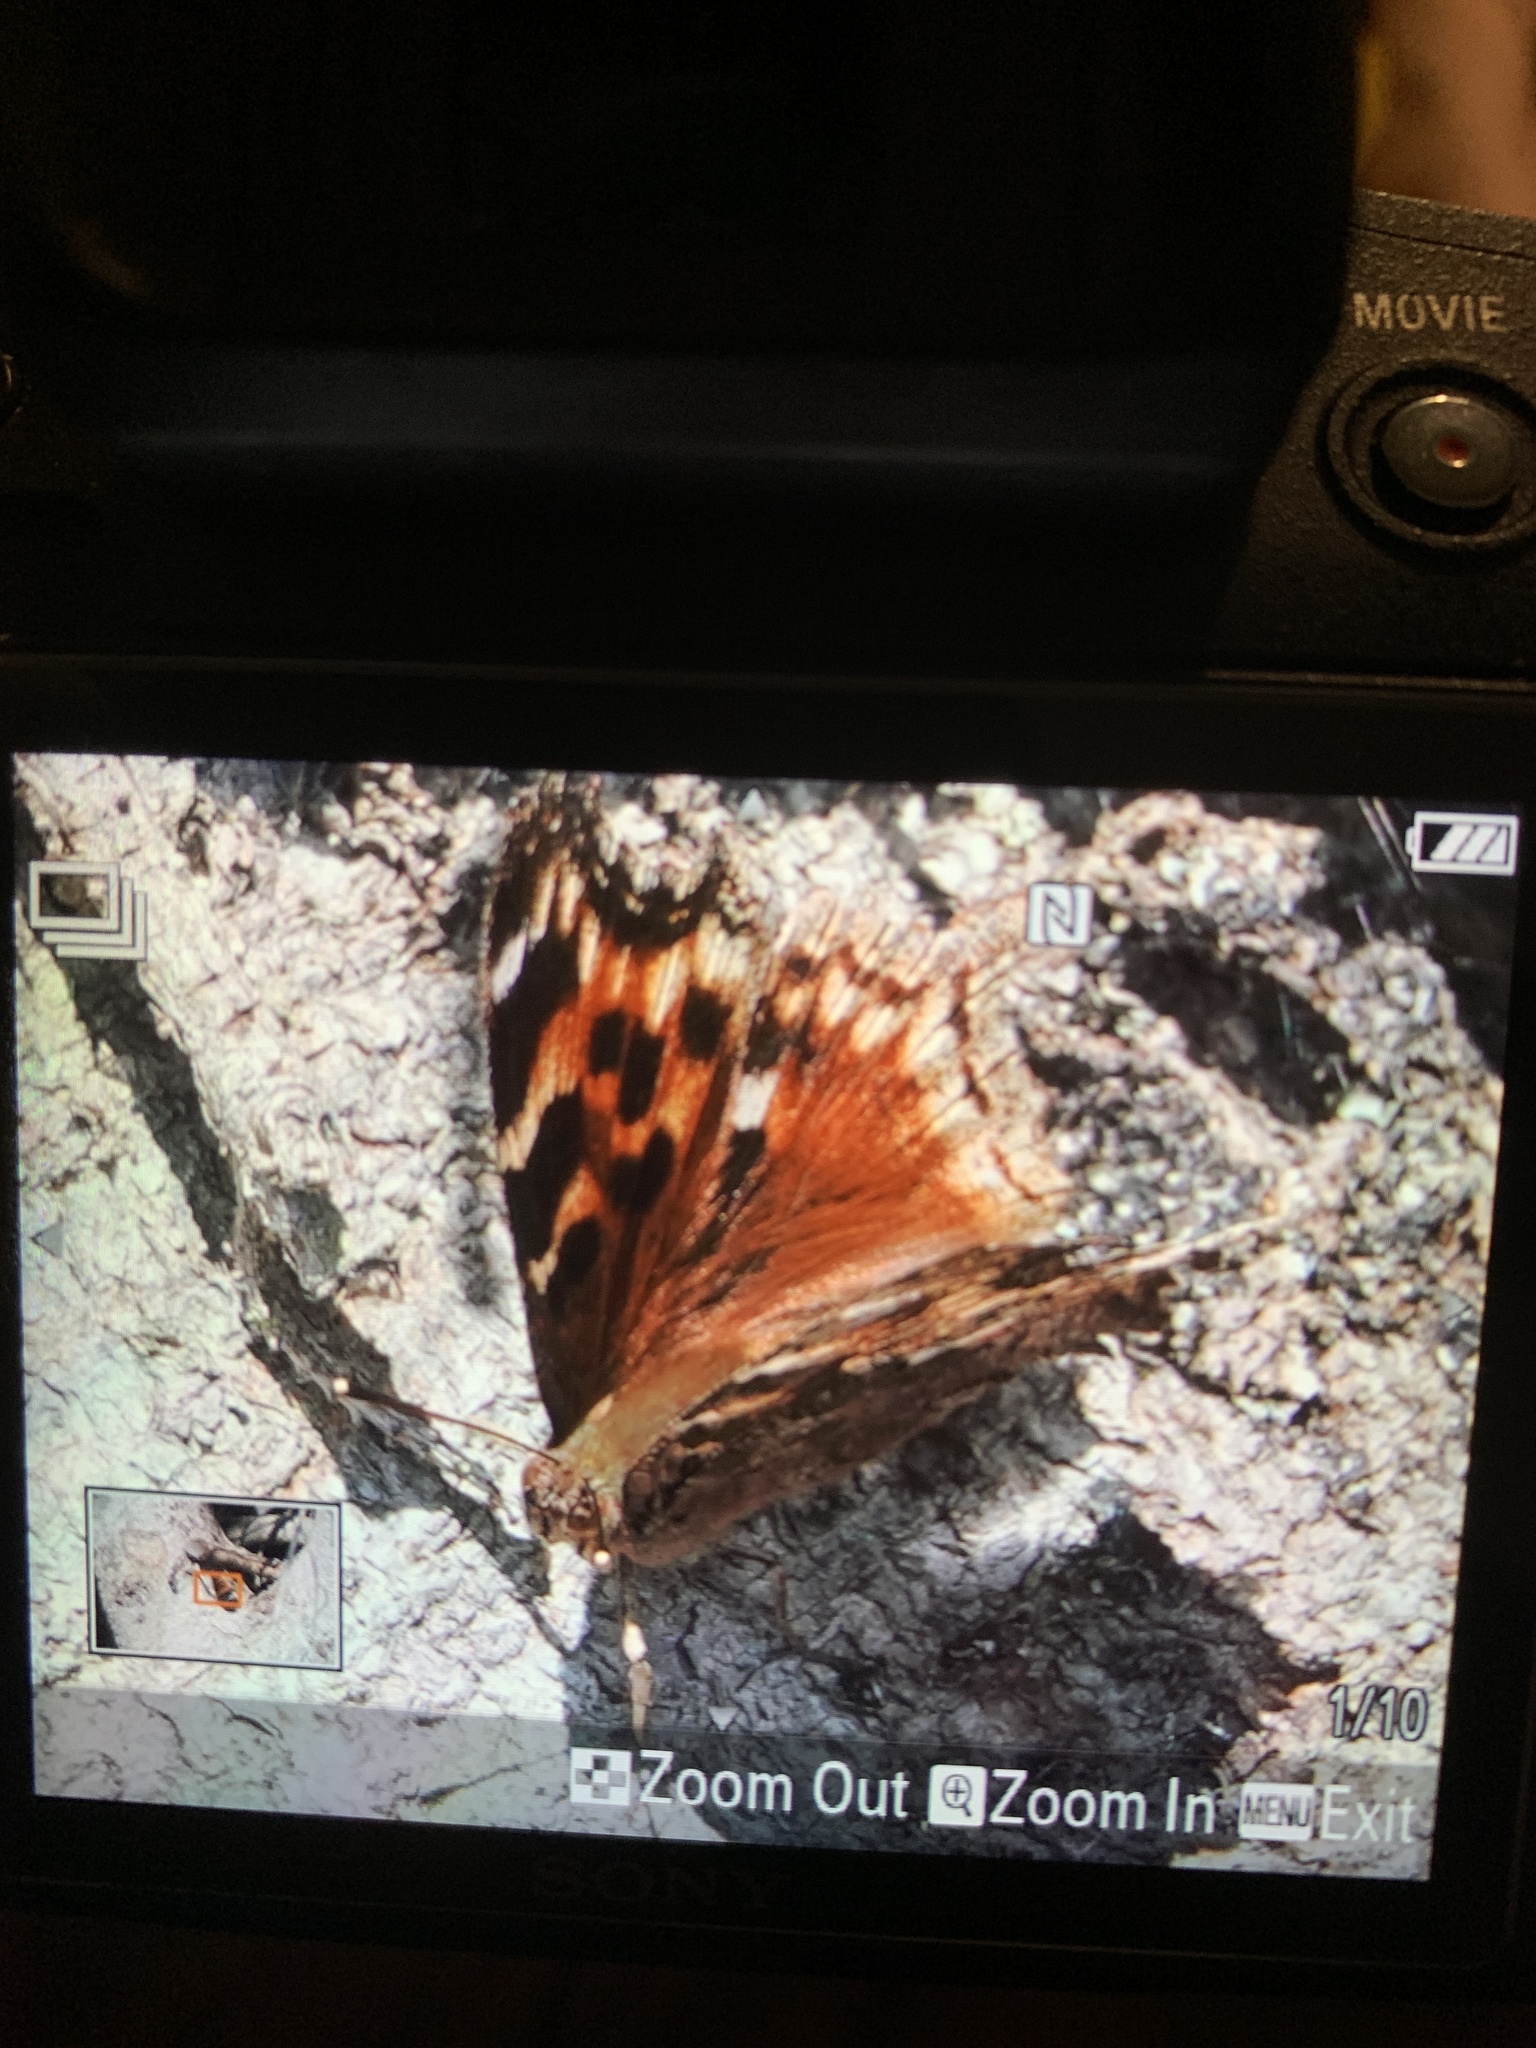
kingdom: Animalia
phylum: Arthropoda
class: Insecta
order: Lepidoptera
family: Nymphalidae
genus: Polygonia
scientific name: Polygonia vaualbum
